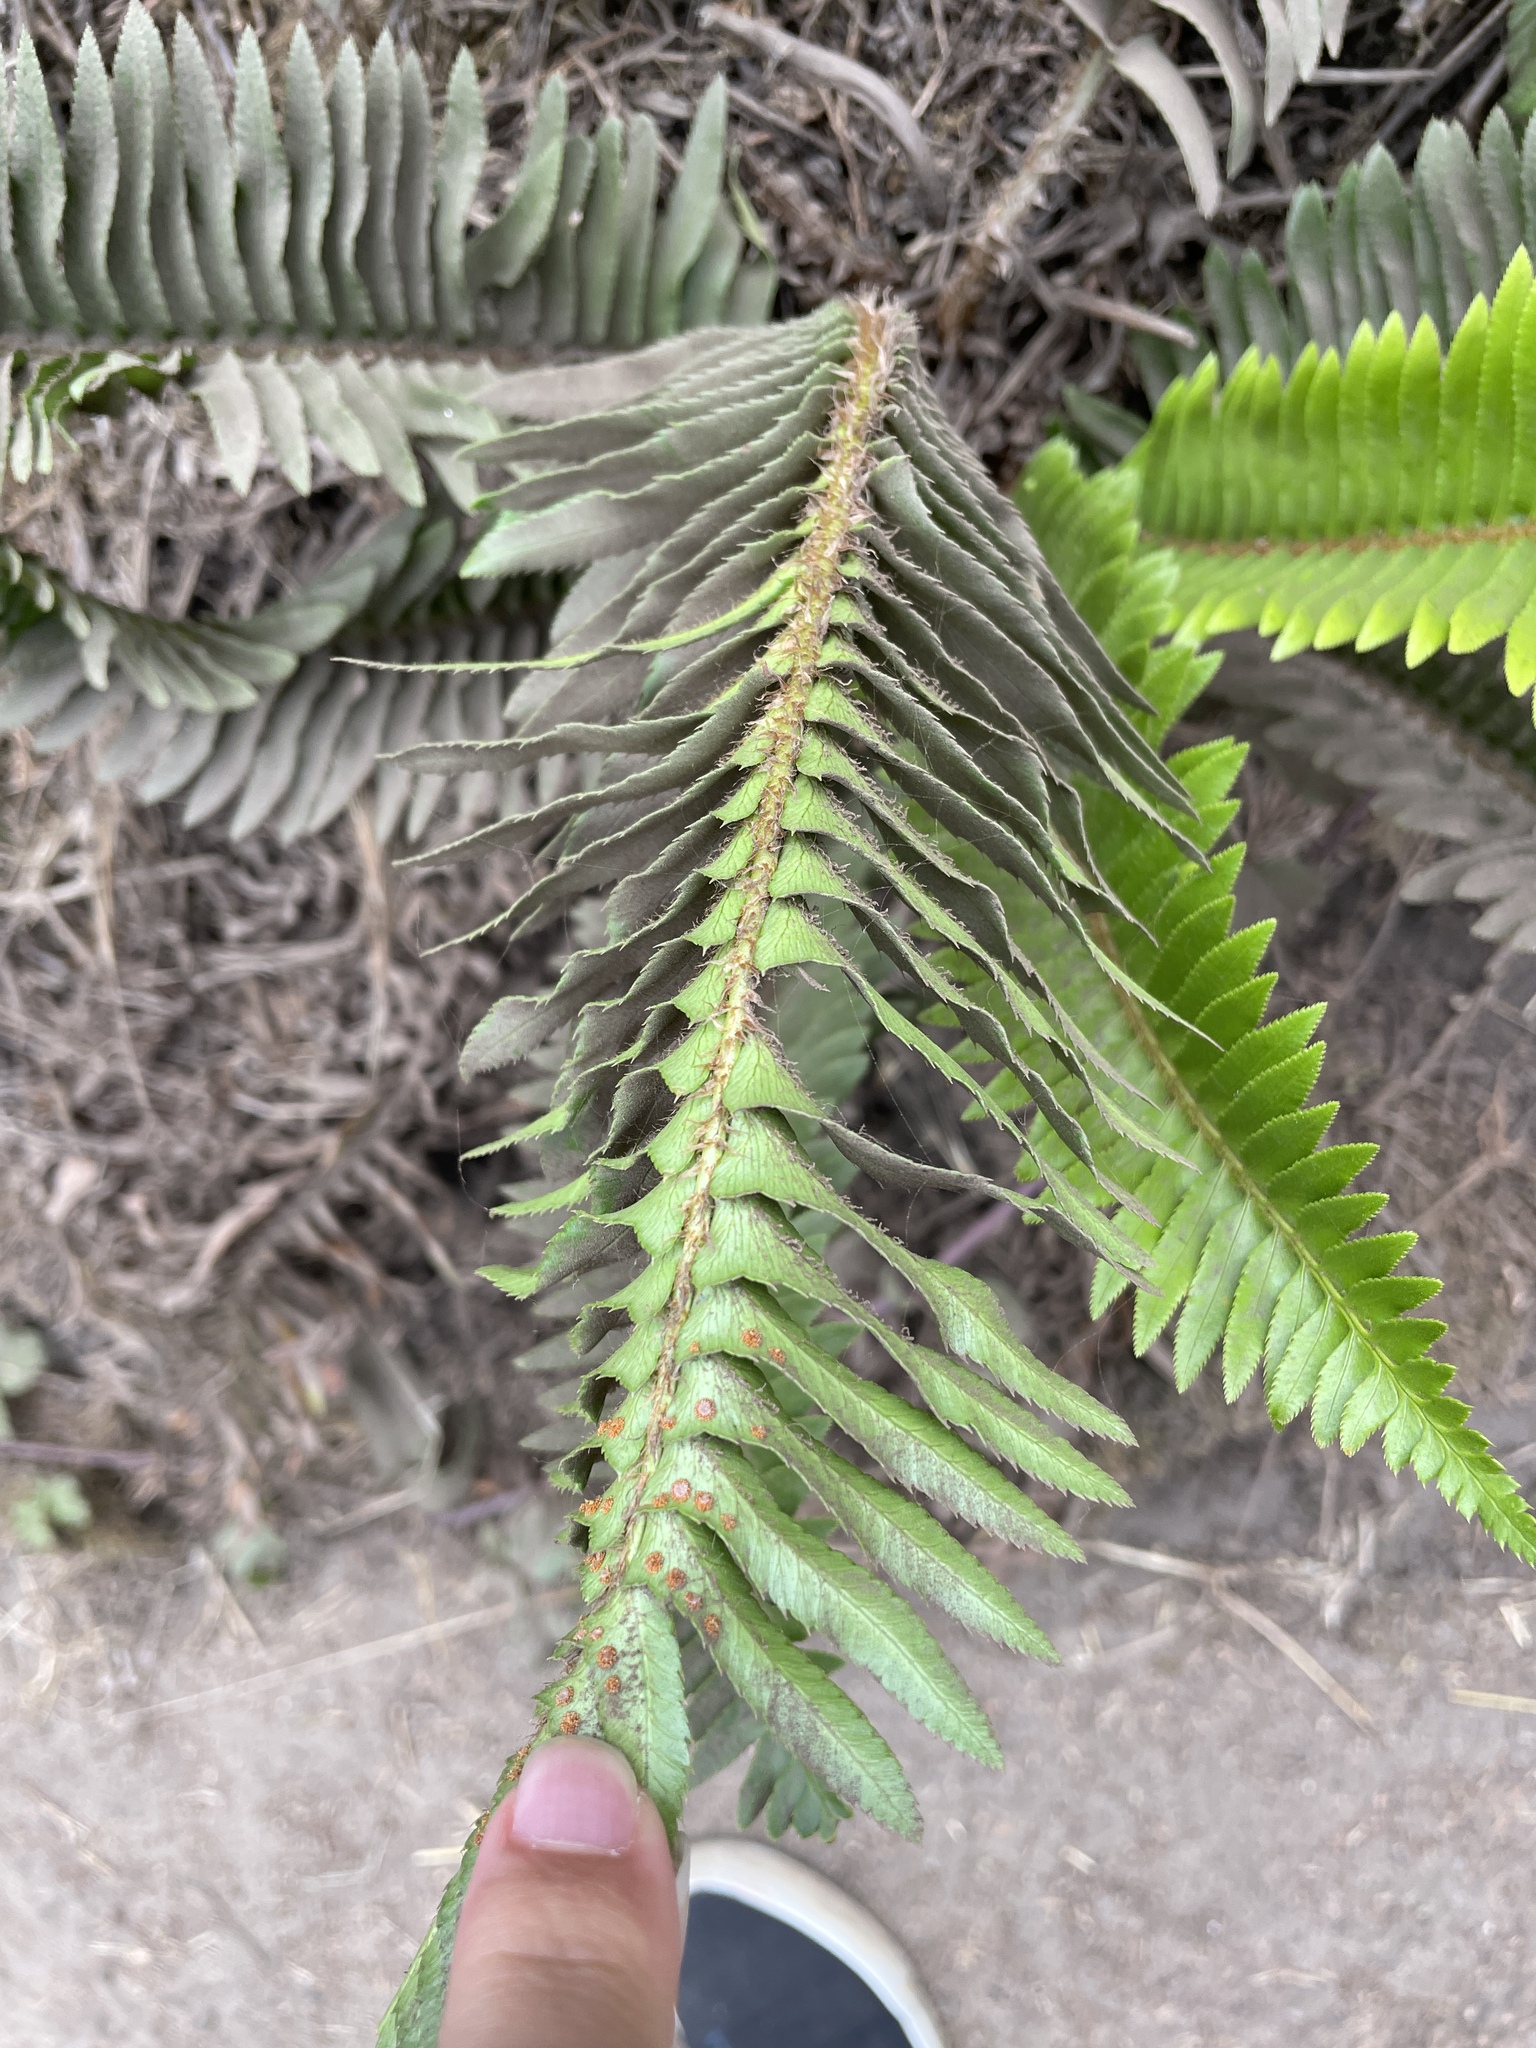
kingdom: Plantae
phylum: Tracheophyta
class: Polypodiopsida
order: Polypodiales
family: Dryopteridaceae
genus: Polystichum
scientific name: Polystichum munitum
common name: Western sword-fern
